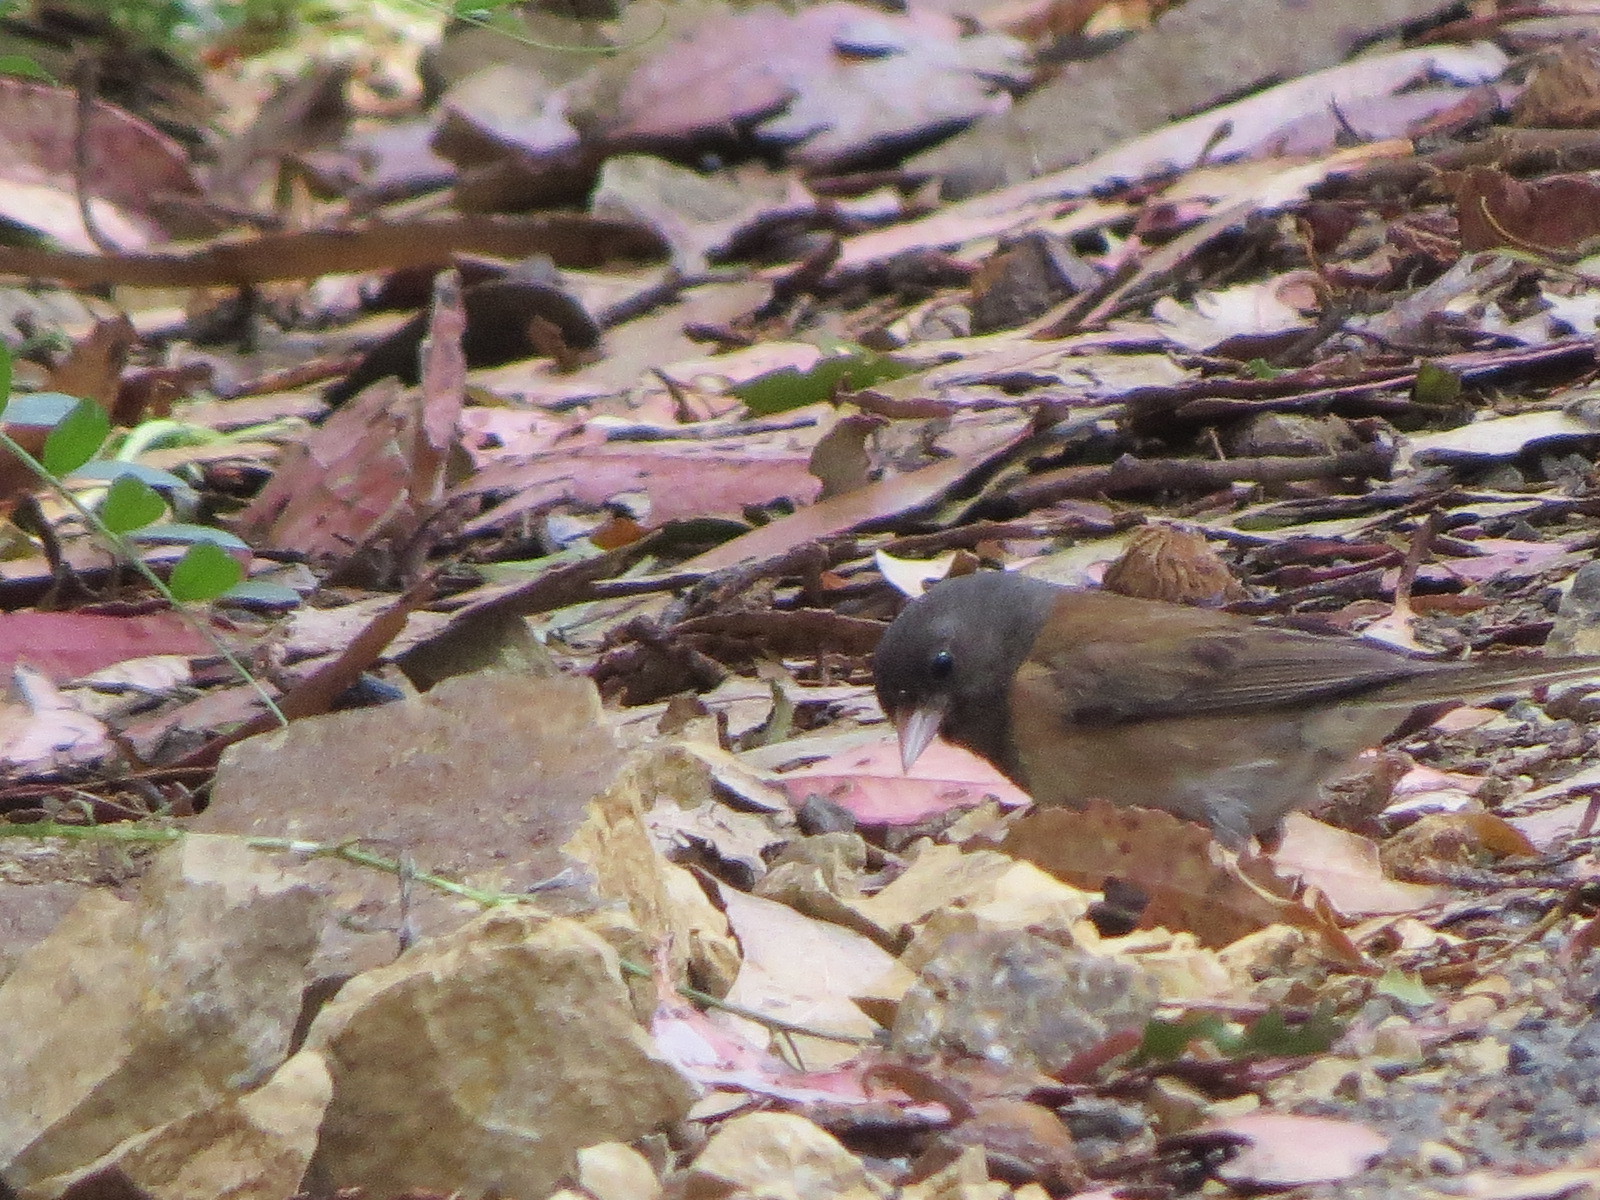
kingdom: Animalia
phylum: Chordata
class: Aves
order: Passeriformes
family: Passerellidae
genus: Junco
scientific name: Junco hyemalis
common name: Dark-eyed junco
